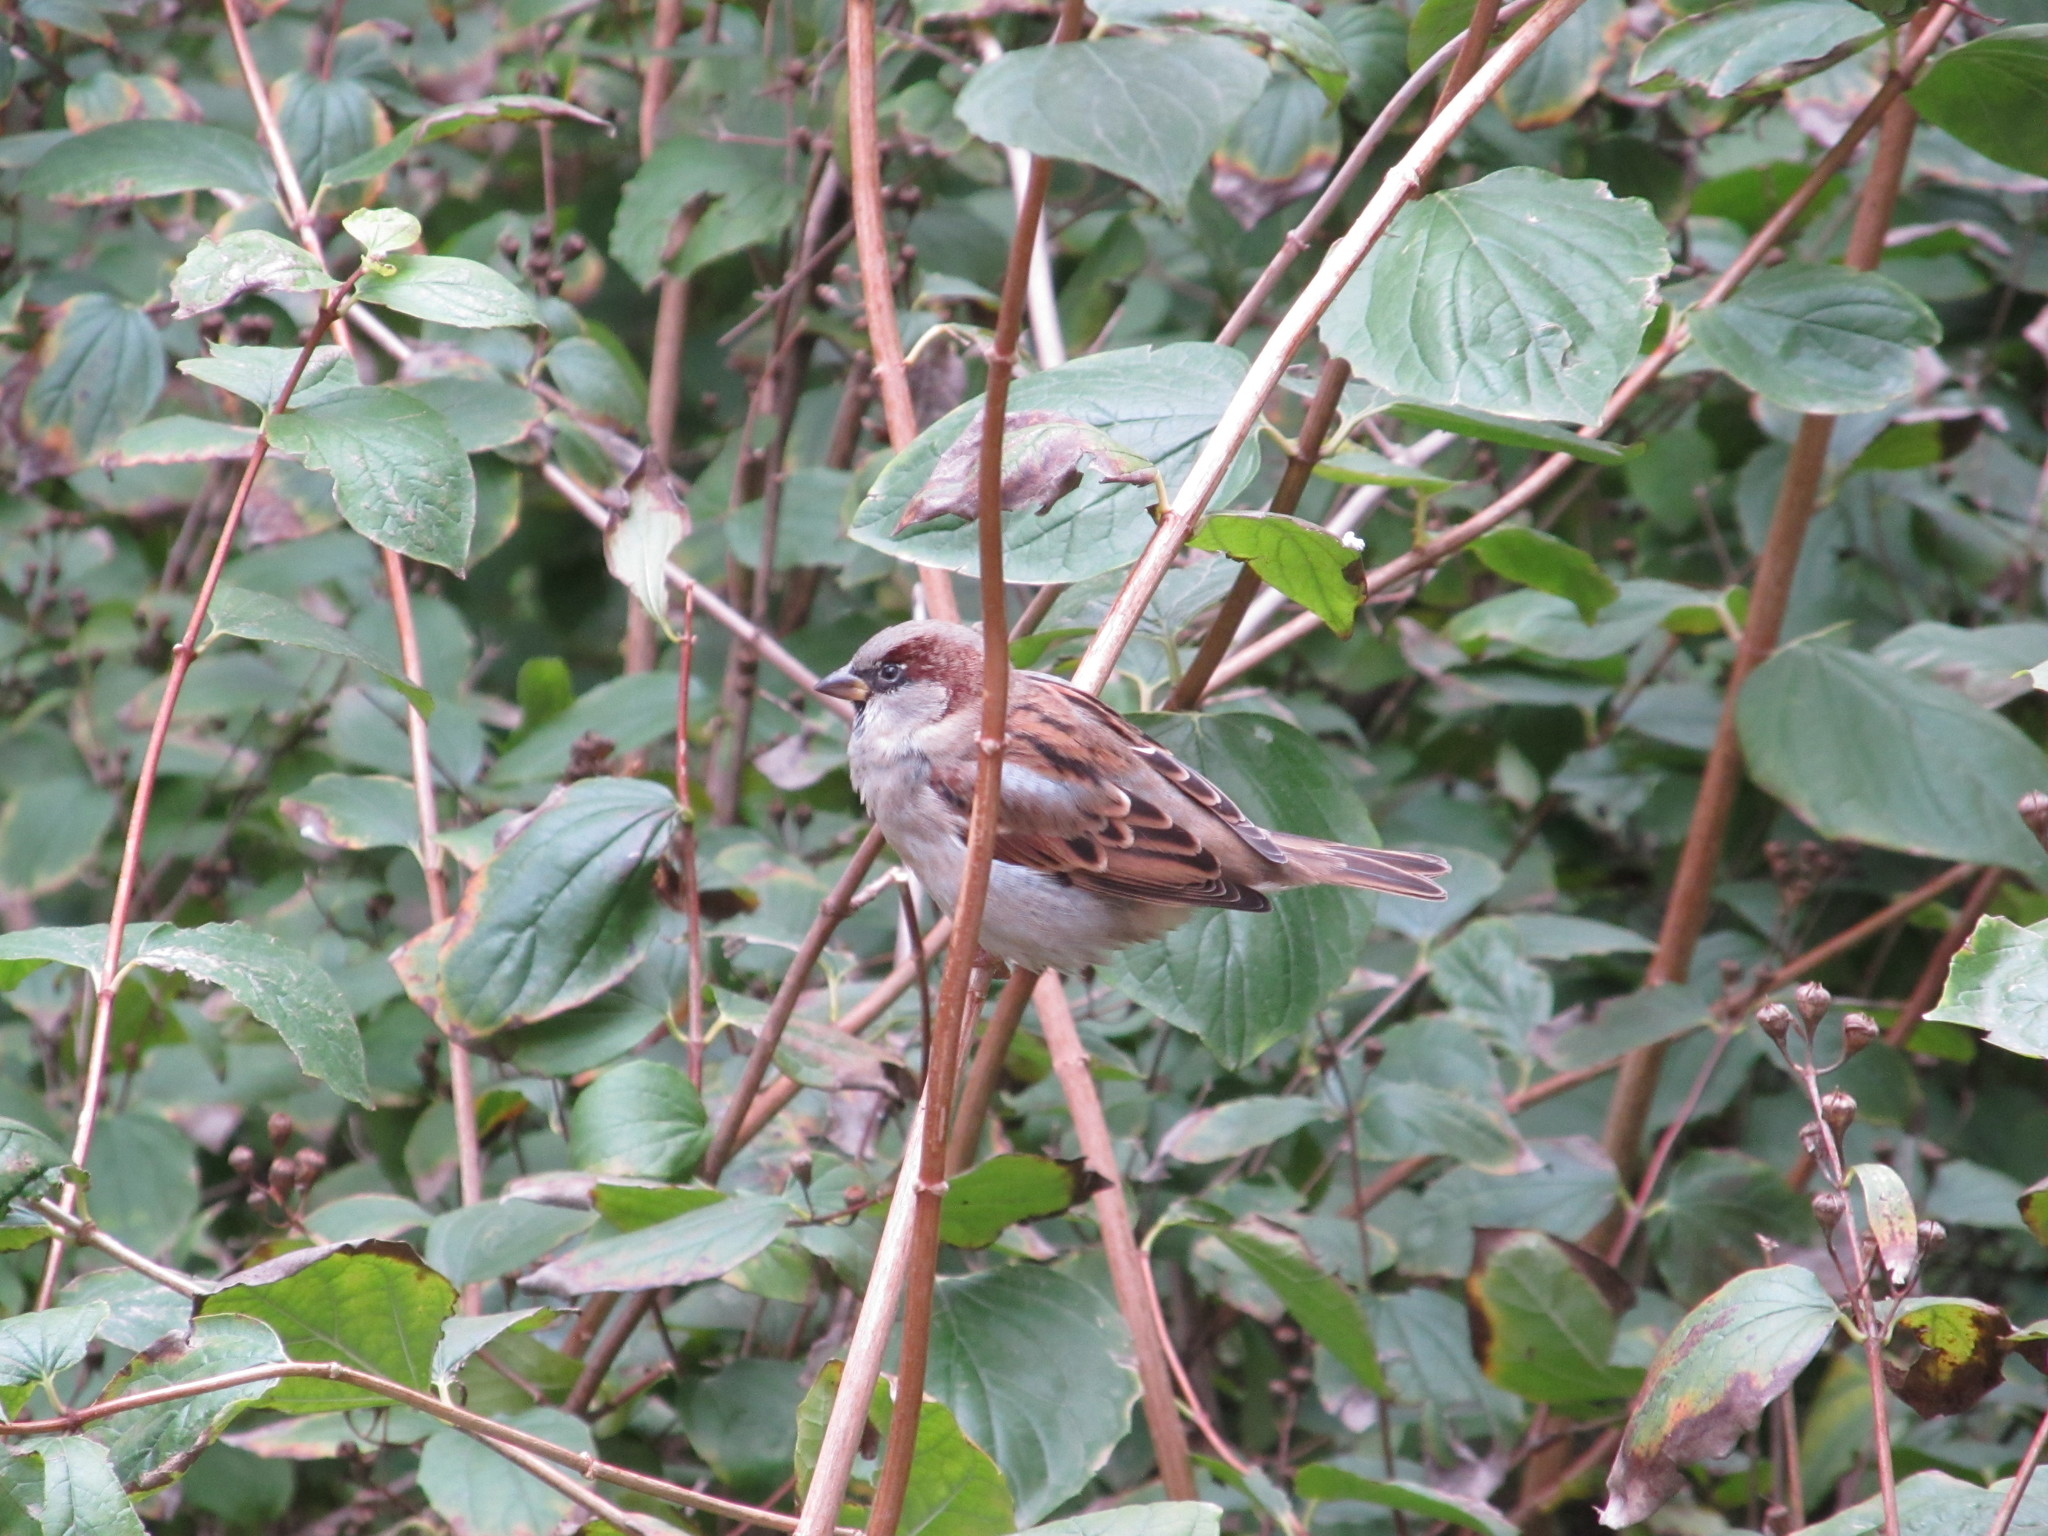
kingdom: Animalia
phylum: Chordata
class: Aves
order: Passeriformes
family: Passeridae
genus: Passer
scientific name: Passer domesticus
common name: House sparrow
